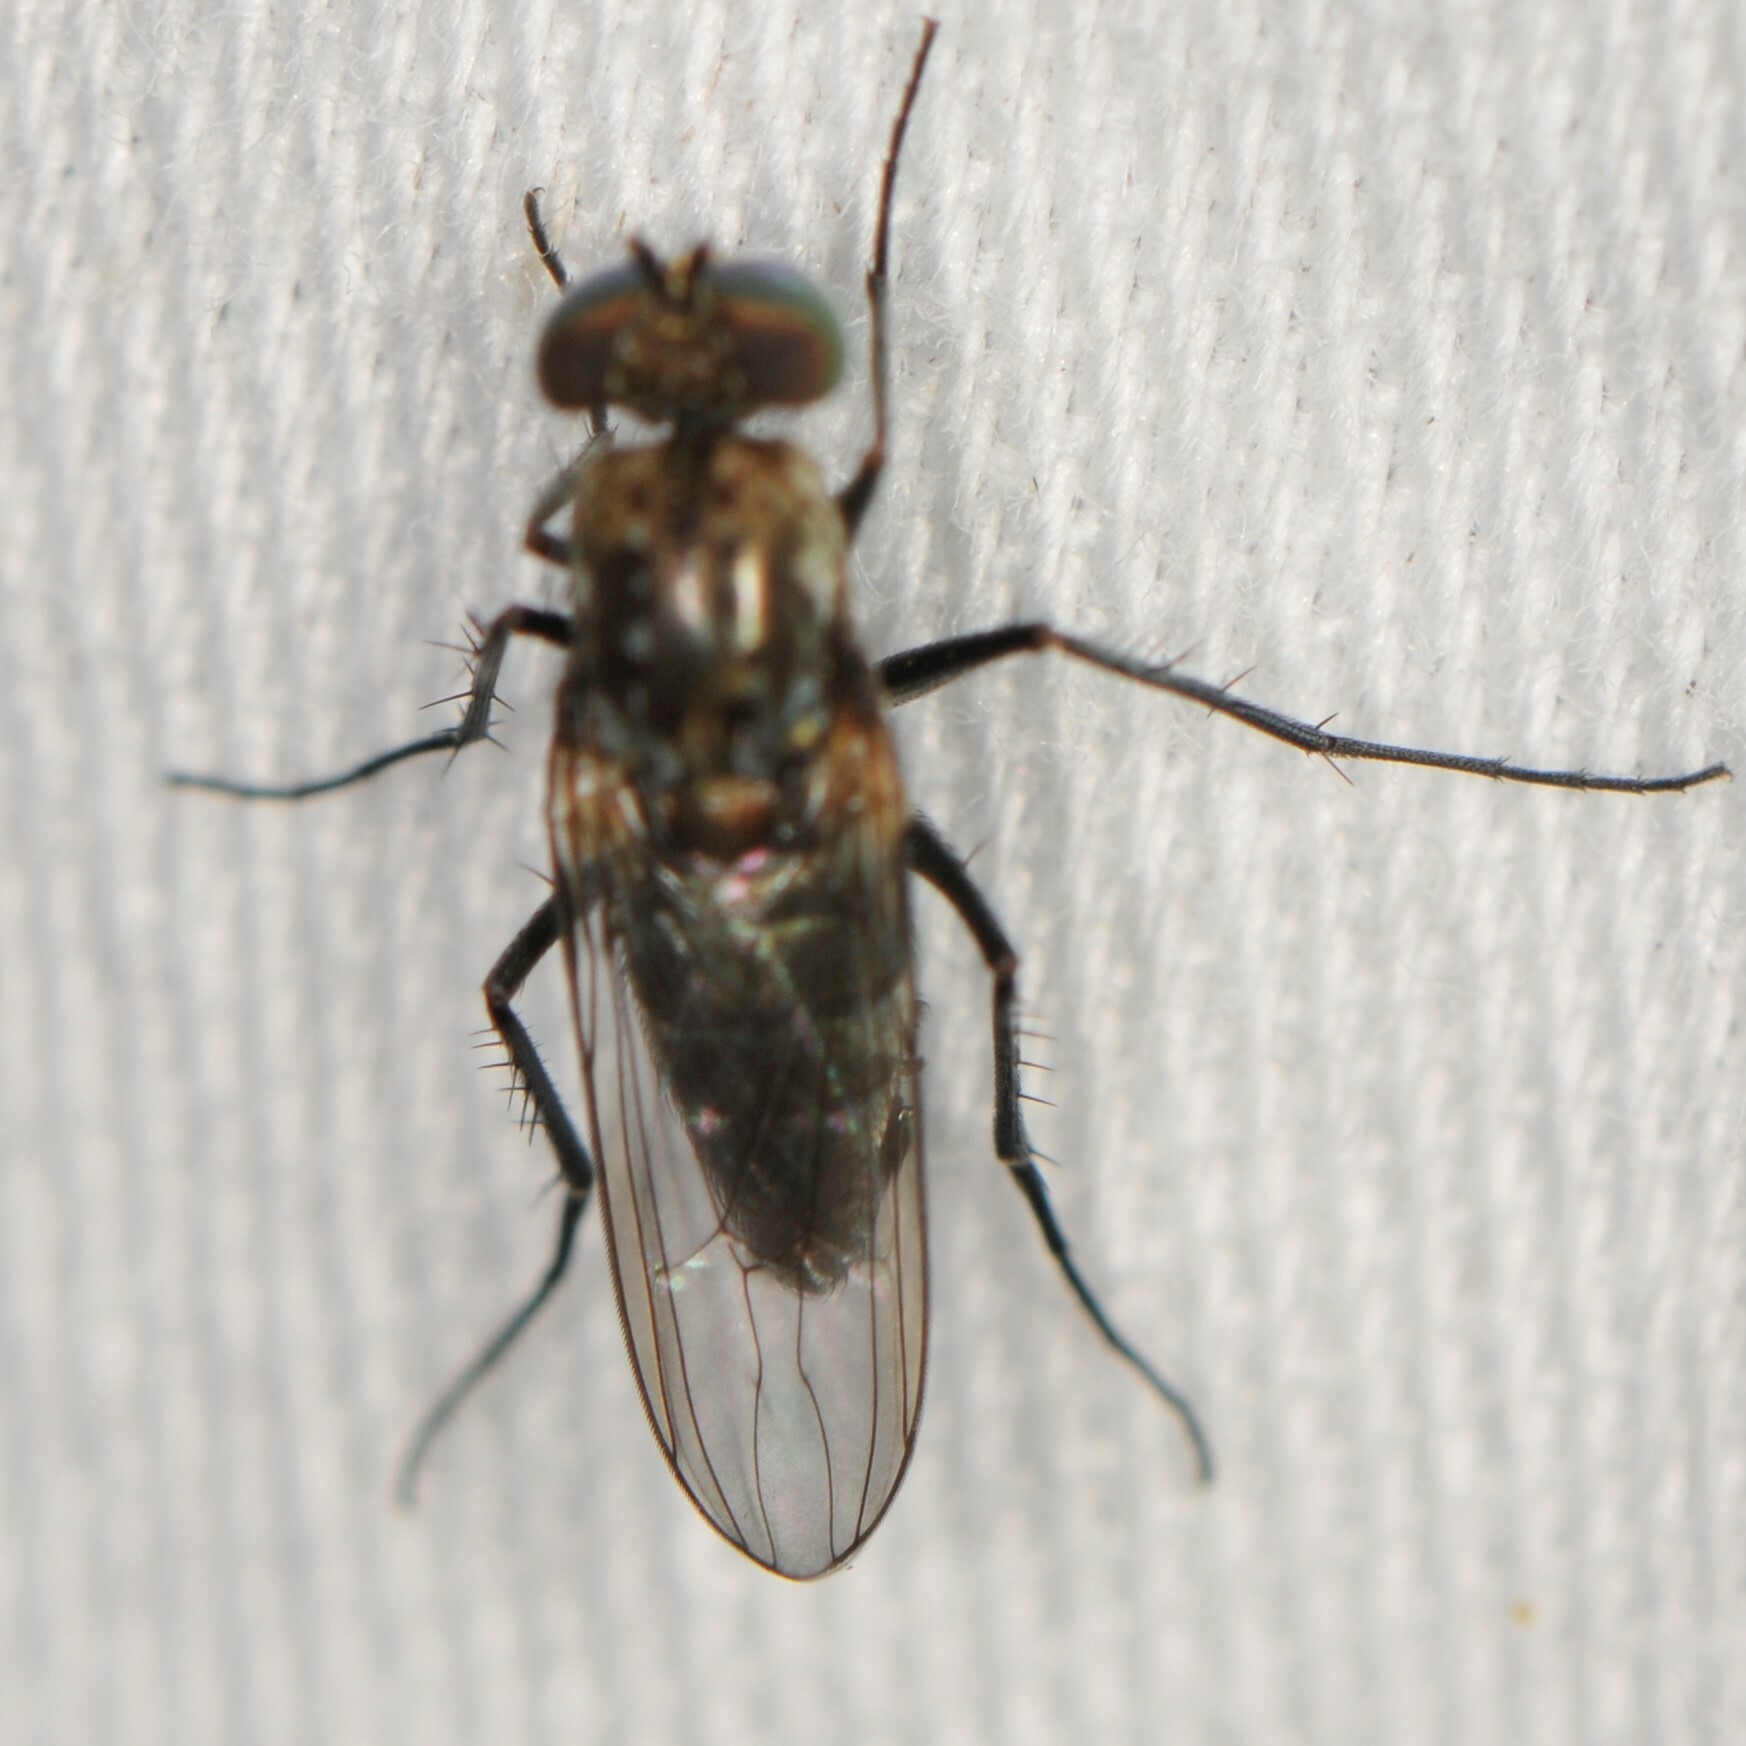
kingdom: Animalia
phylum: Arthropoda
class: Insecta
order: Diptera
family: Dolichopodidae
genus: Tachytrechus
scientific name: Tachytrechus
